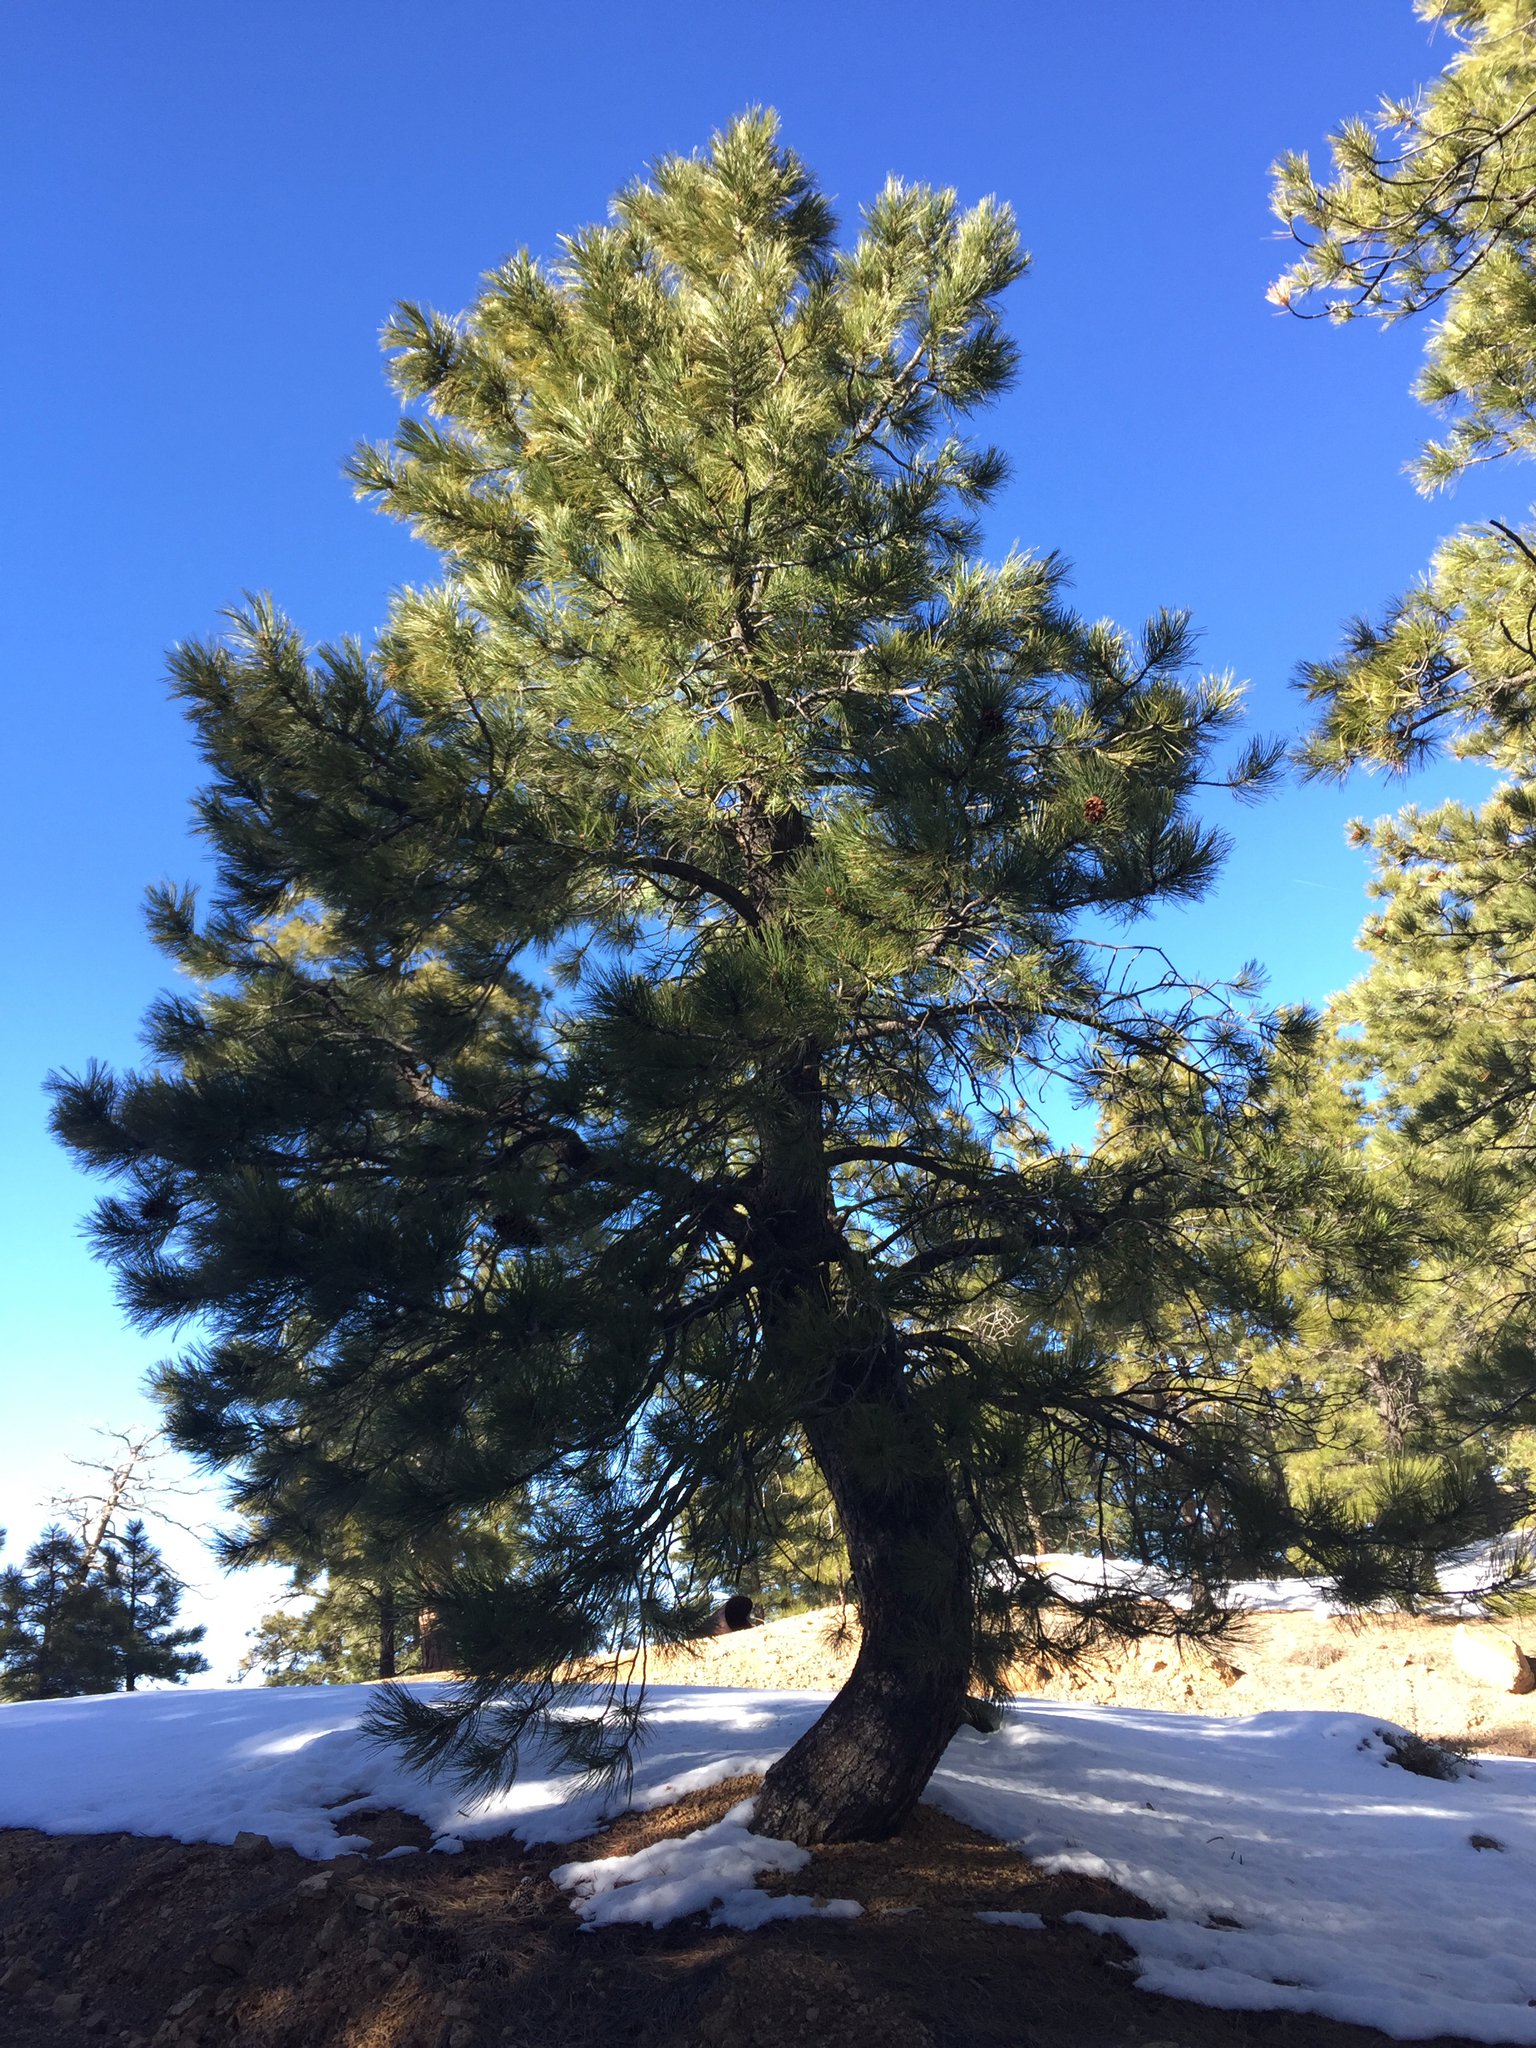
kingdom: Plantae
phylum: Tracheophyta
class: Pinopsida
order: Pinales
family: Pinaceae
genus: Pinus
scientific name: Pinus ponderosa
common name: Western yellow-pine
